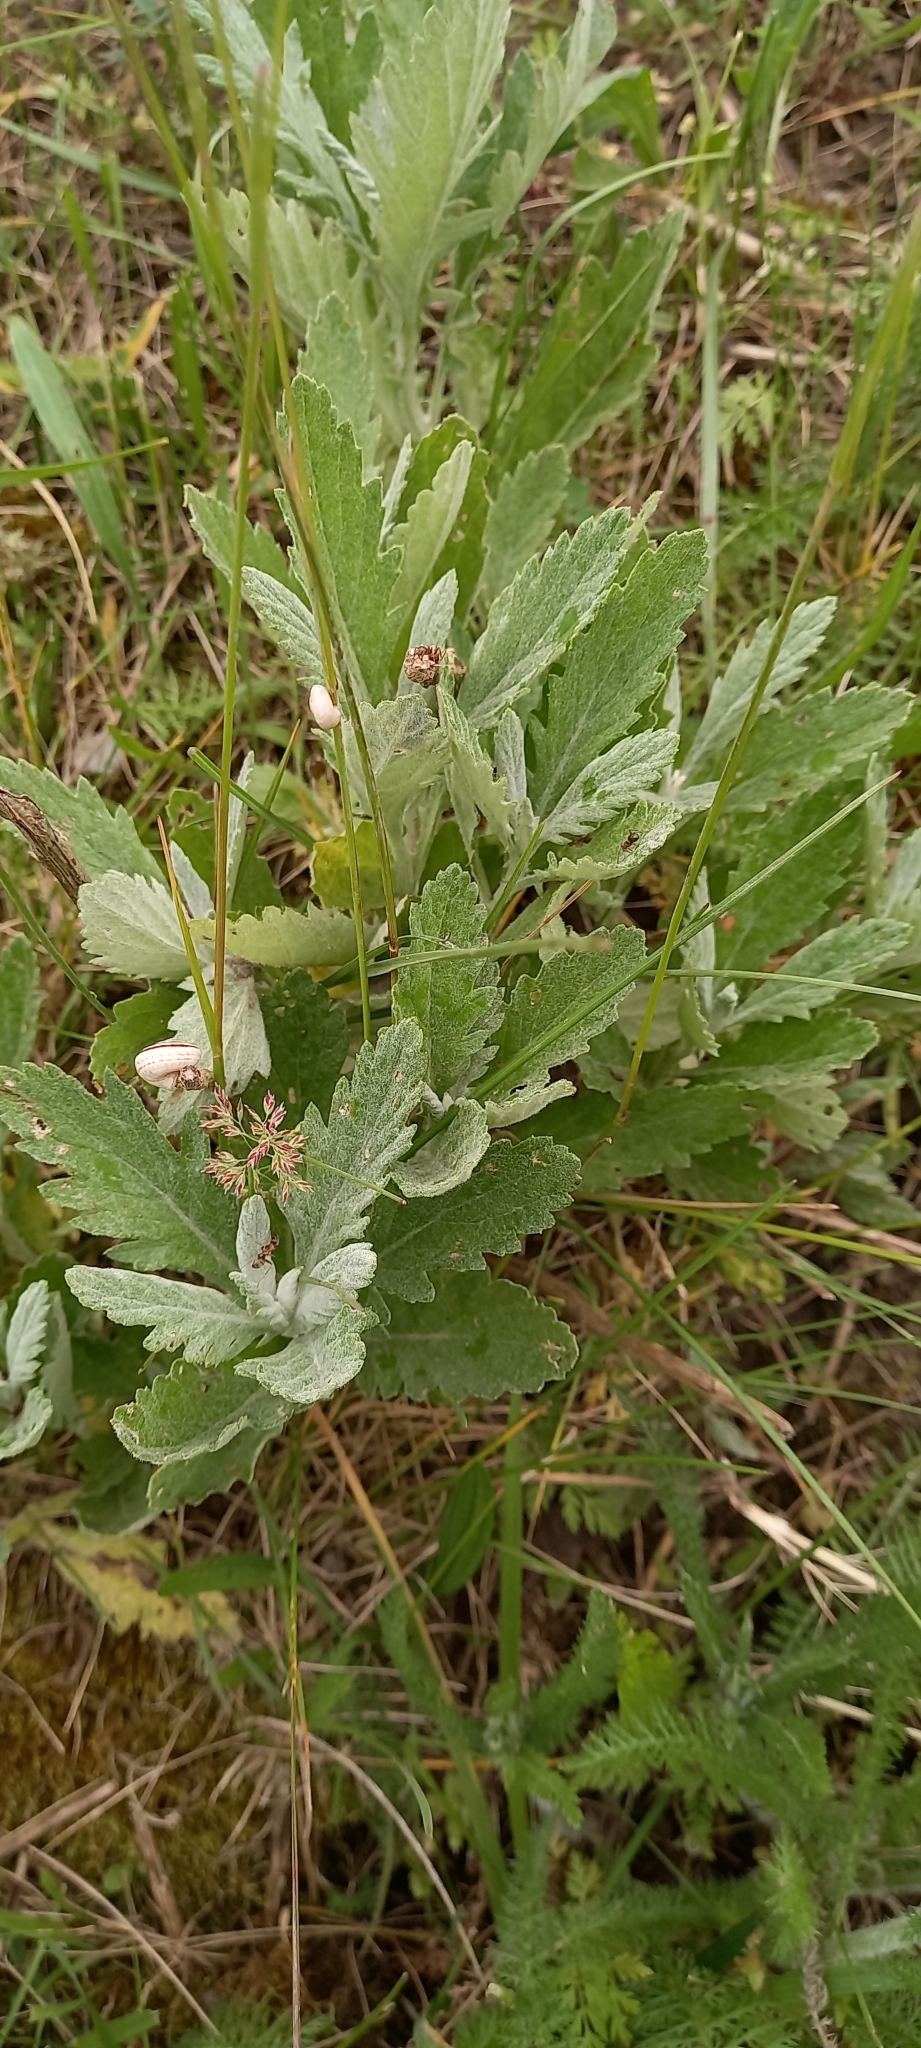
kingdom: Plantae
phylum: Tracheophyta
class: Magnoliopsida
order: Asterales
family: Asteraceae
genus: Jacobaea
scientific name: Jacobaea erucifolia
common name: Hoary ragwort
